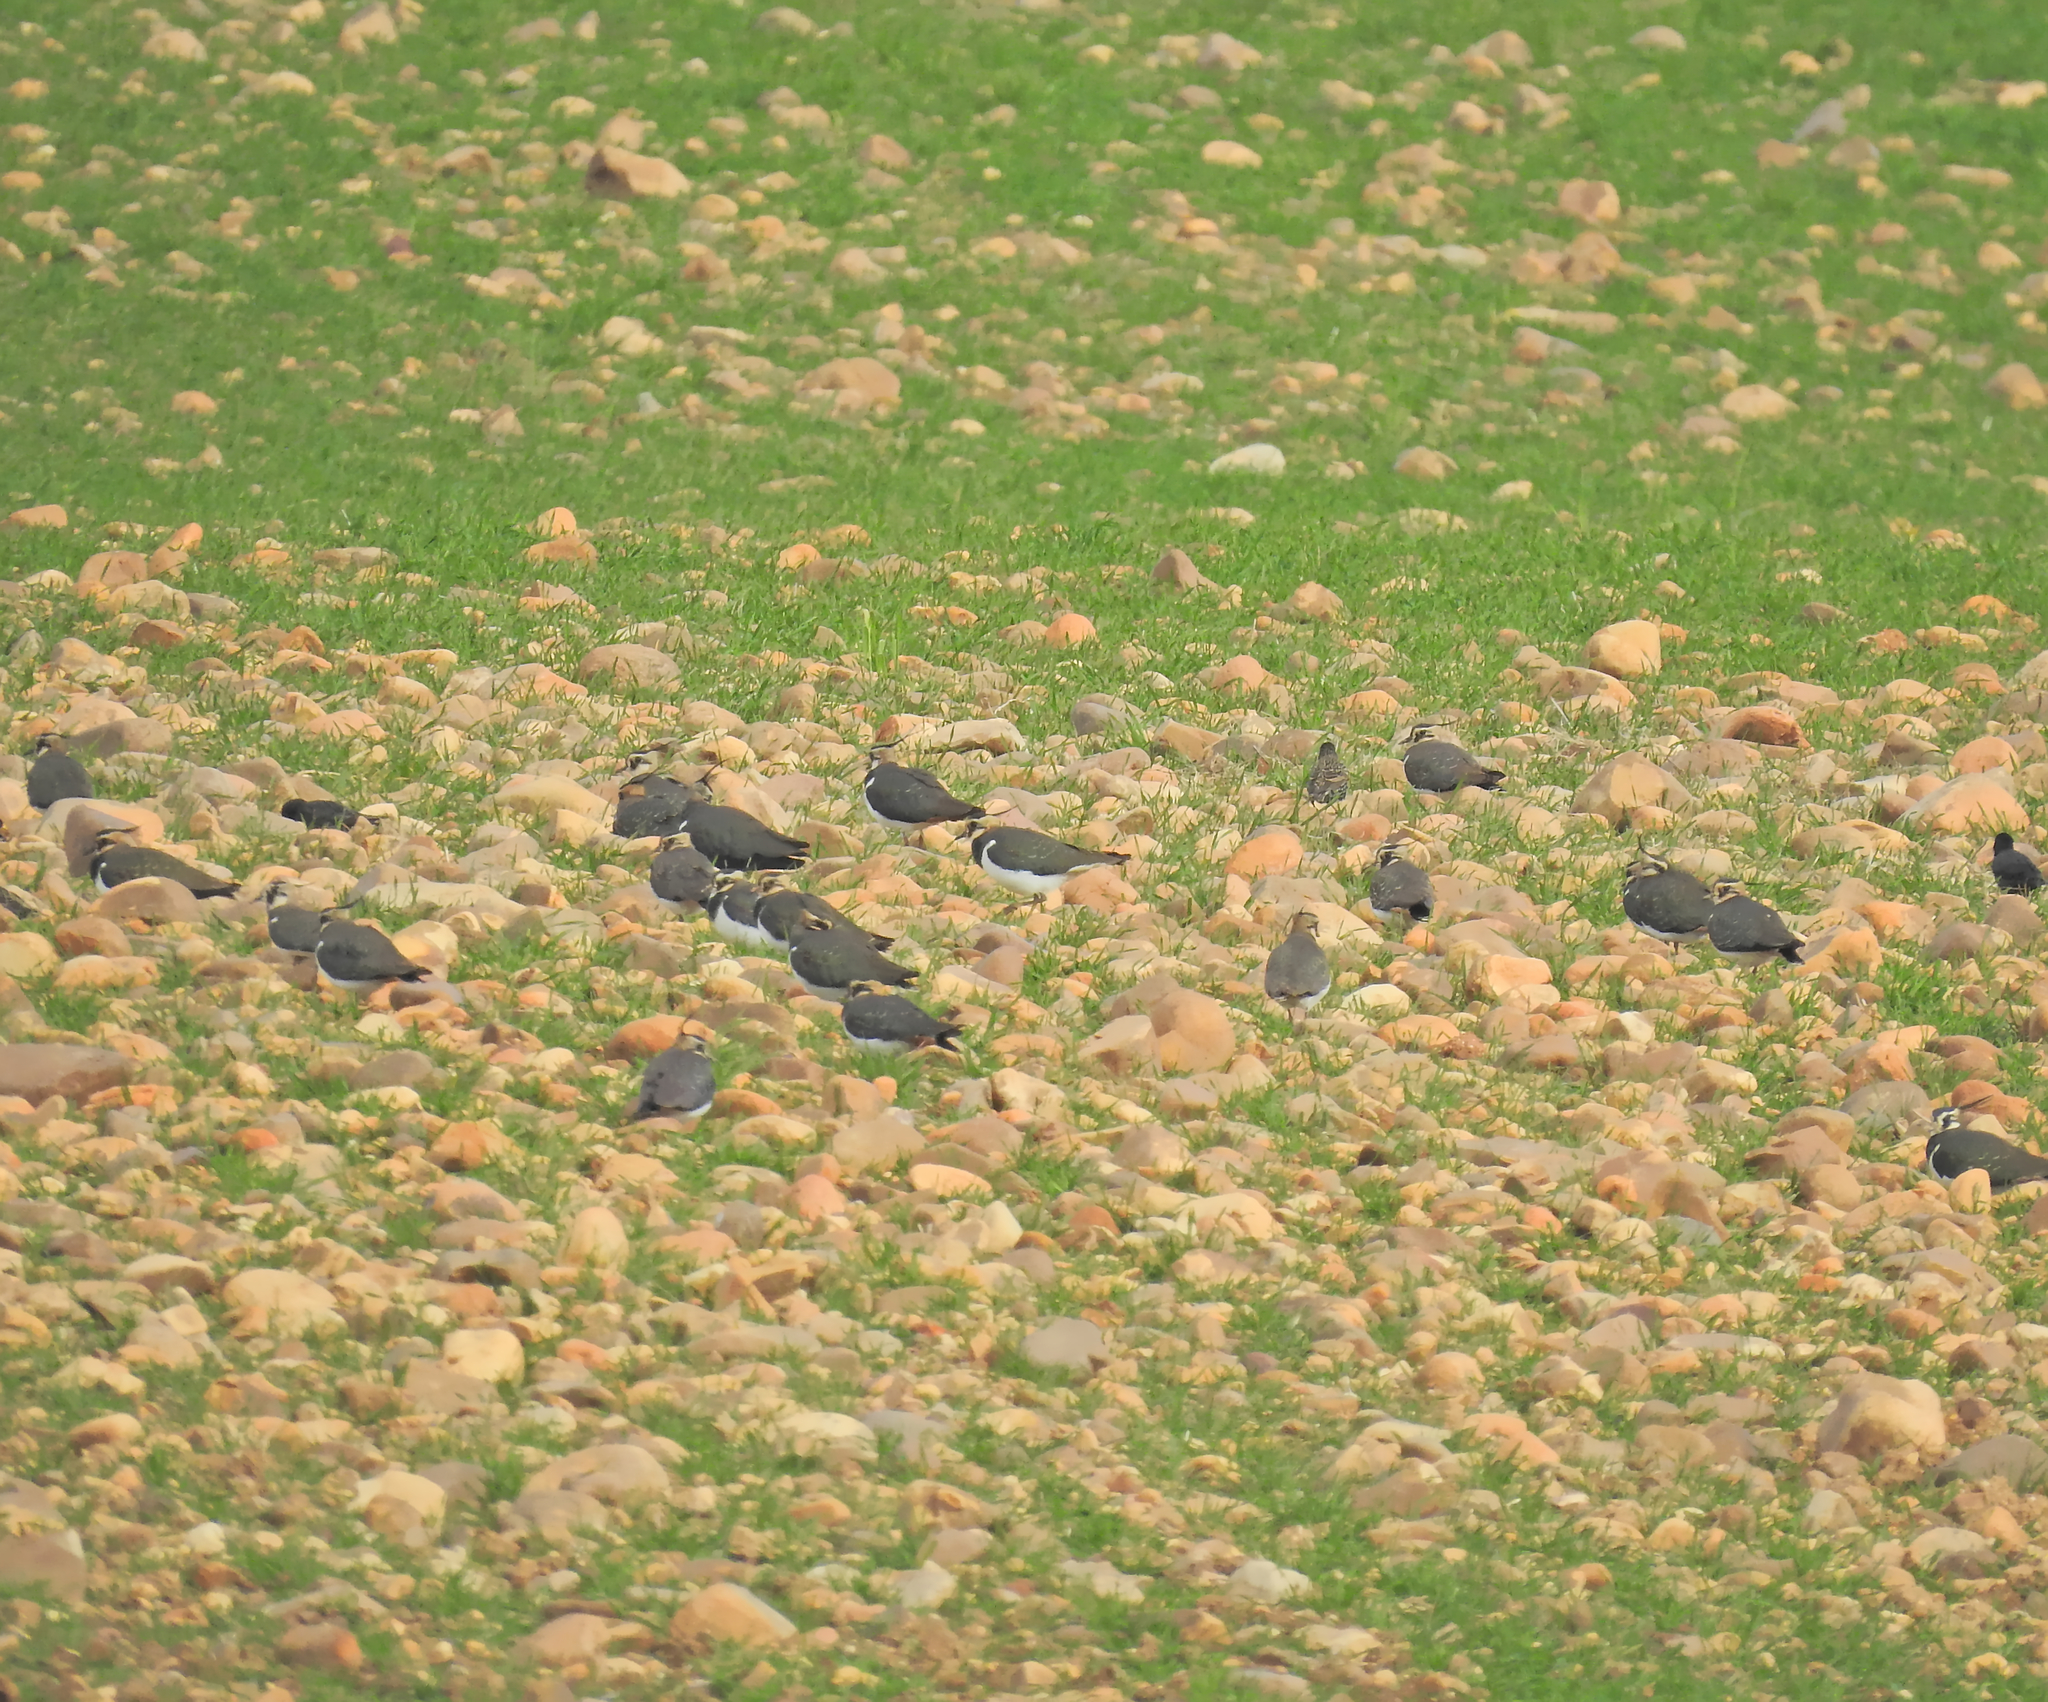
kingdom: Animalia
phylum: Chordata
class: Aves
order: Charadriiformes
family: Charadriidae
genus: Vanellus
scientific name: Vanellus vanellus
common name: Northern lapwing
